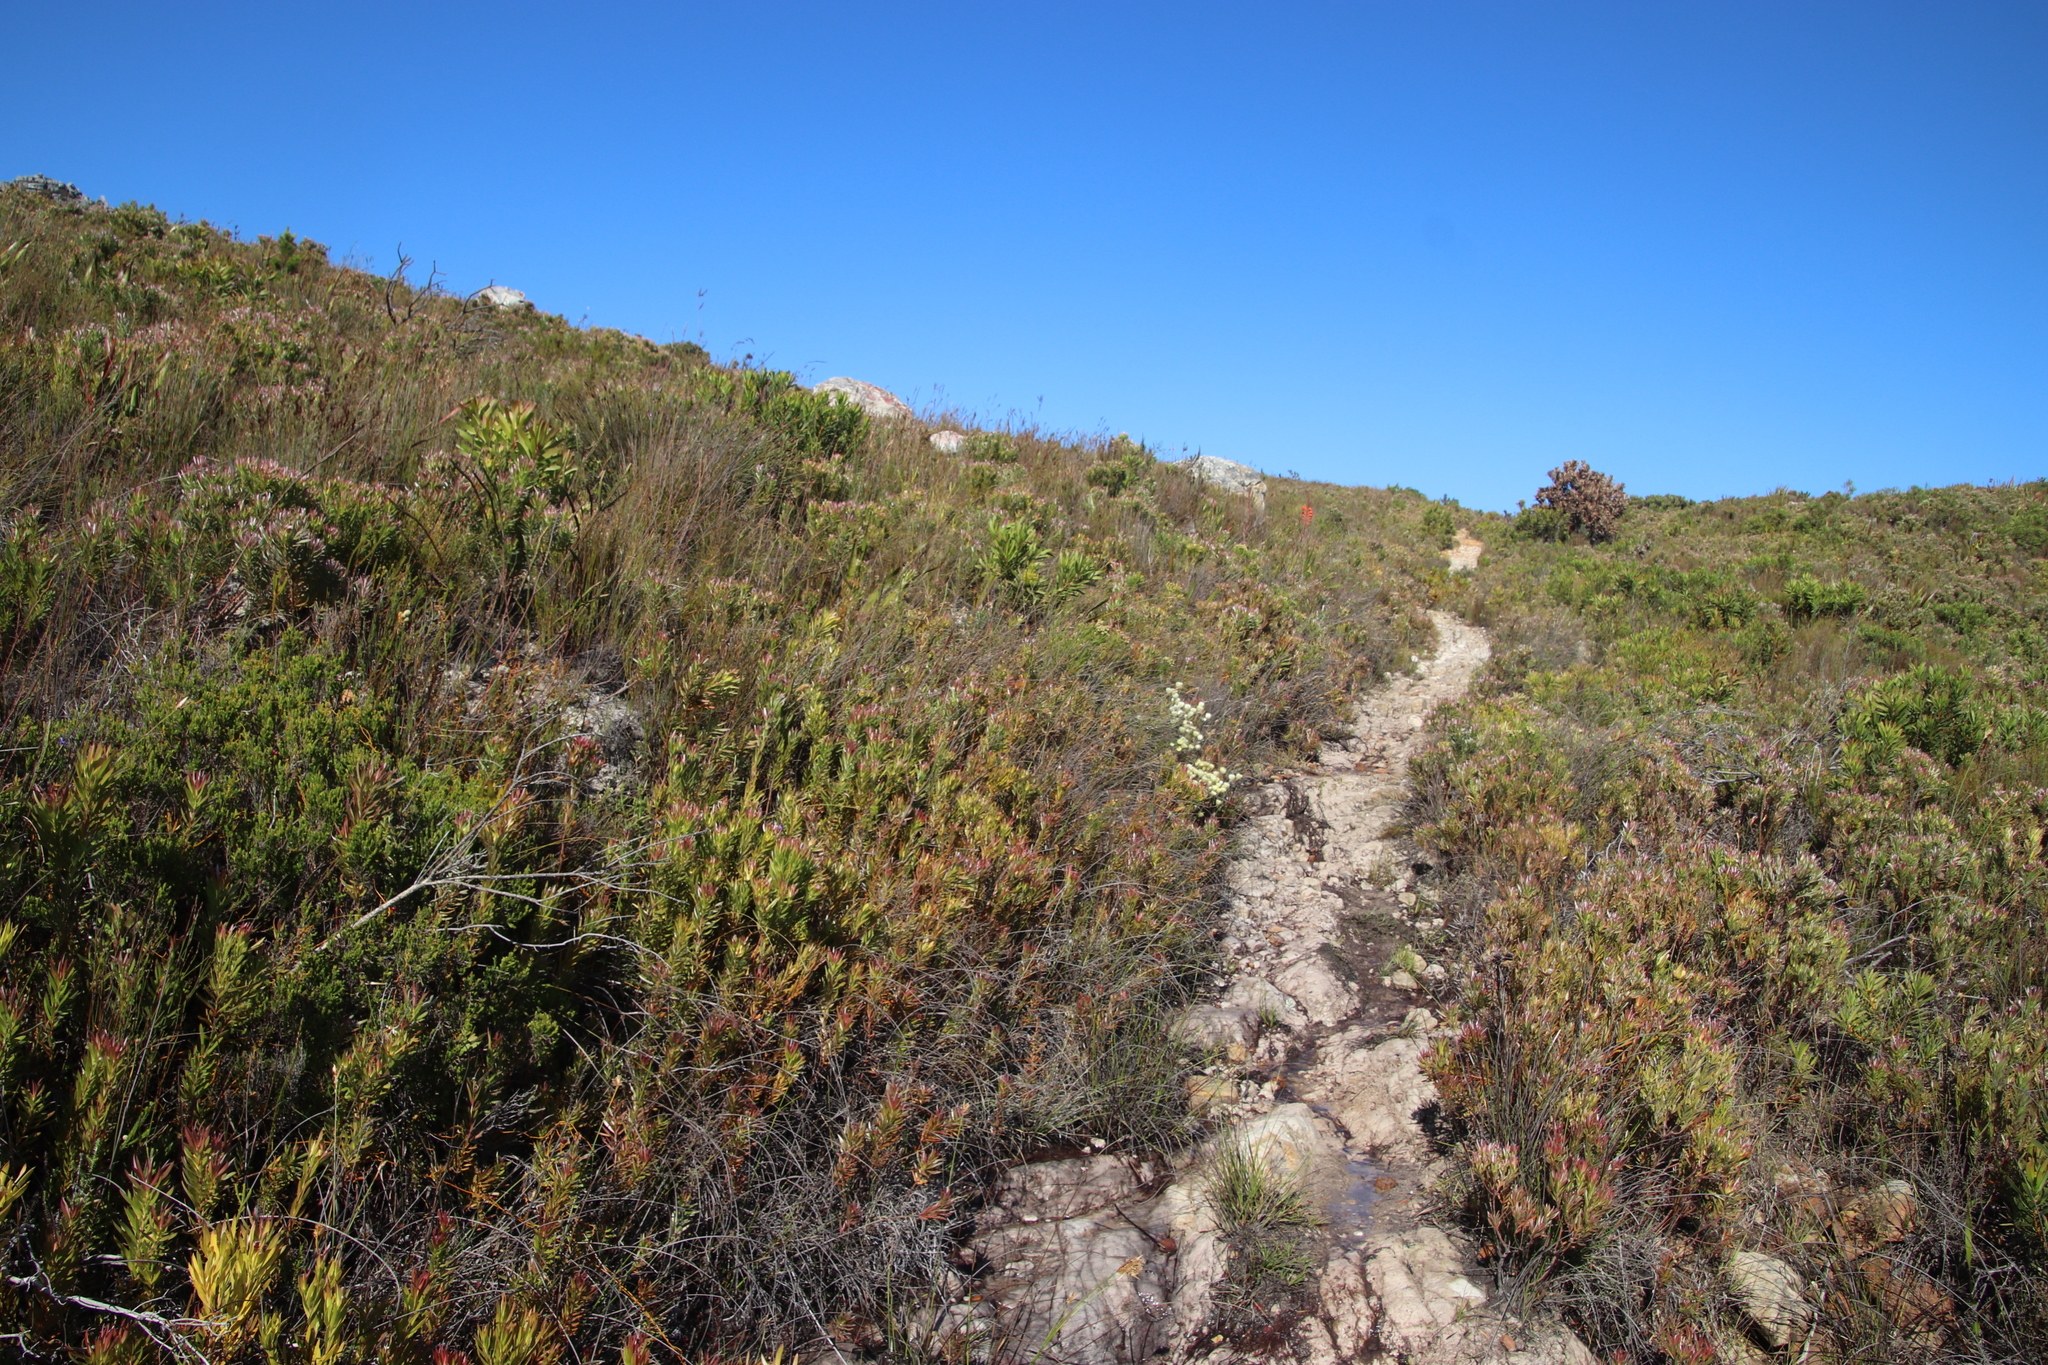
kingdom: Plantae
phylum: Tracheophyta
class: Magnoliopsida
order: Asterales
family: Asteraceae
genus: Edmondia
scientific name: Edmondia sesamoides
